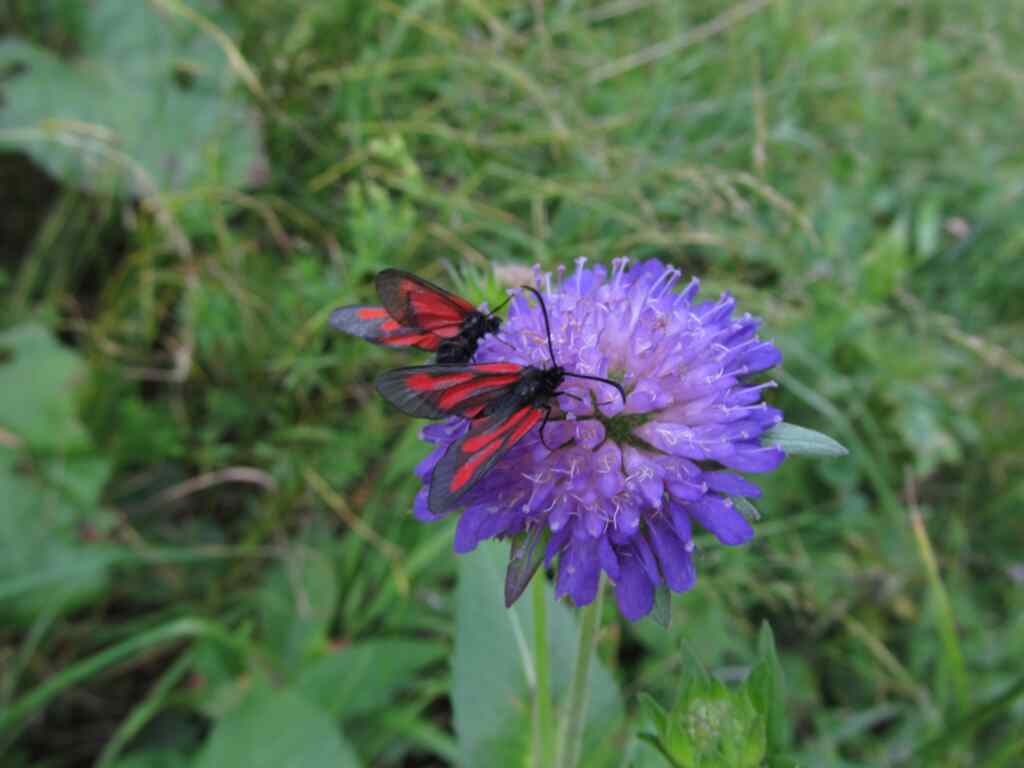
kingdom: Animalia
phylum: Arthropoda
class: Insecta
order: Lepidoptera
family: Zygaenidae
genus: Zygaena
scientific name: Zygaena osterodensis
